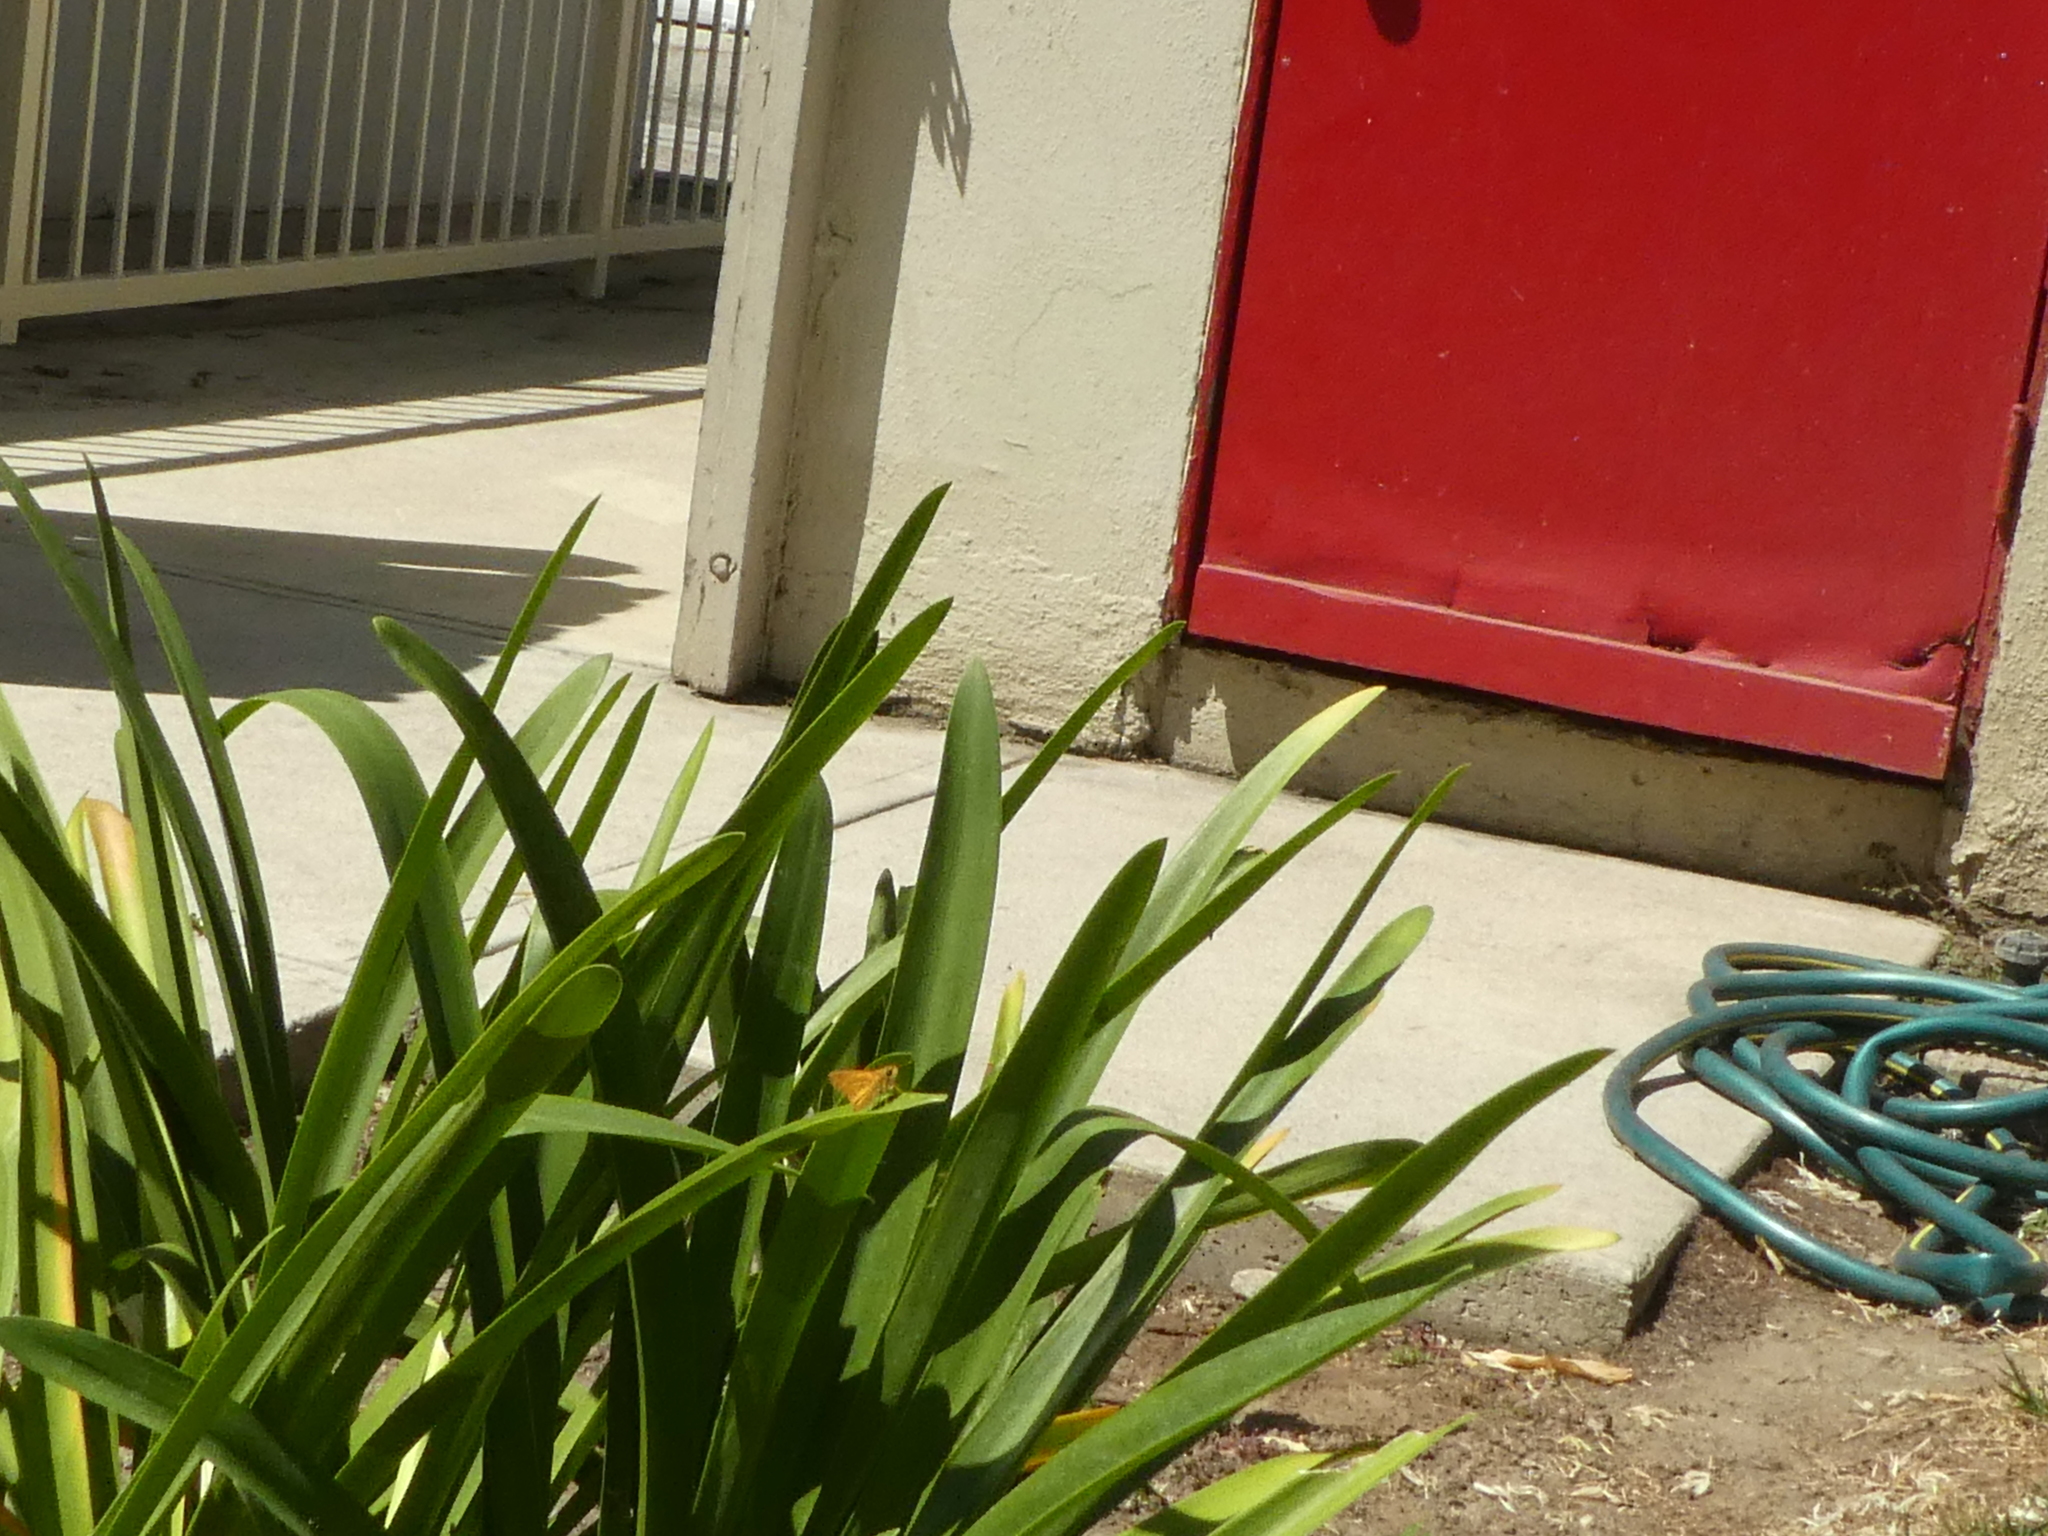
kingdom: Animalia
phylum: Arthropoda
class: Insecta
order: Lepidoptera
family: Hesperiidae
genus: Hylephila
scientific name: Hylephila phyleus
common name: Fiery skipper
